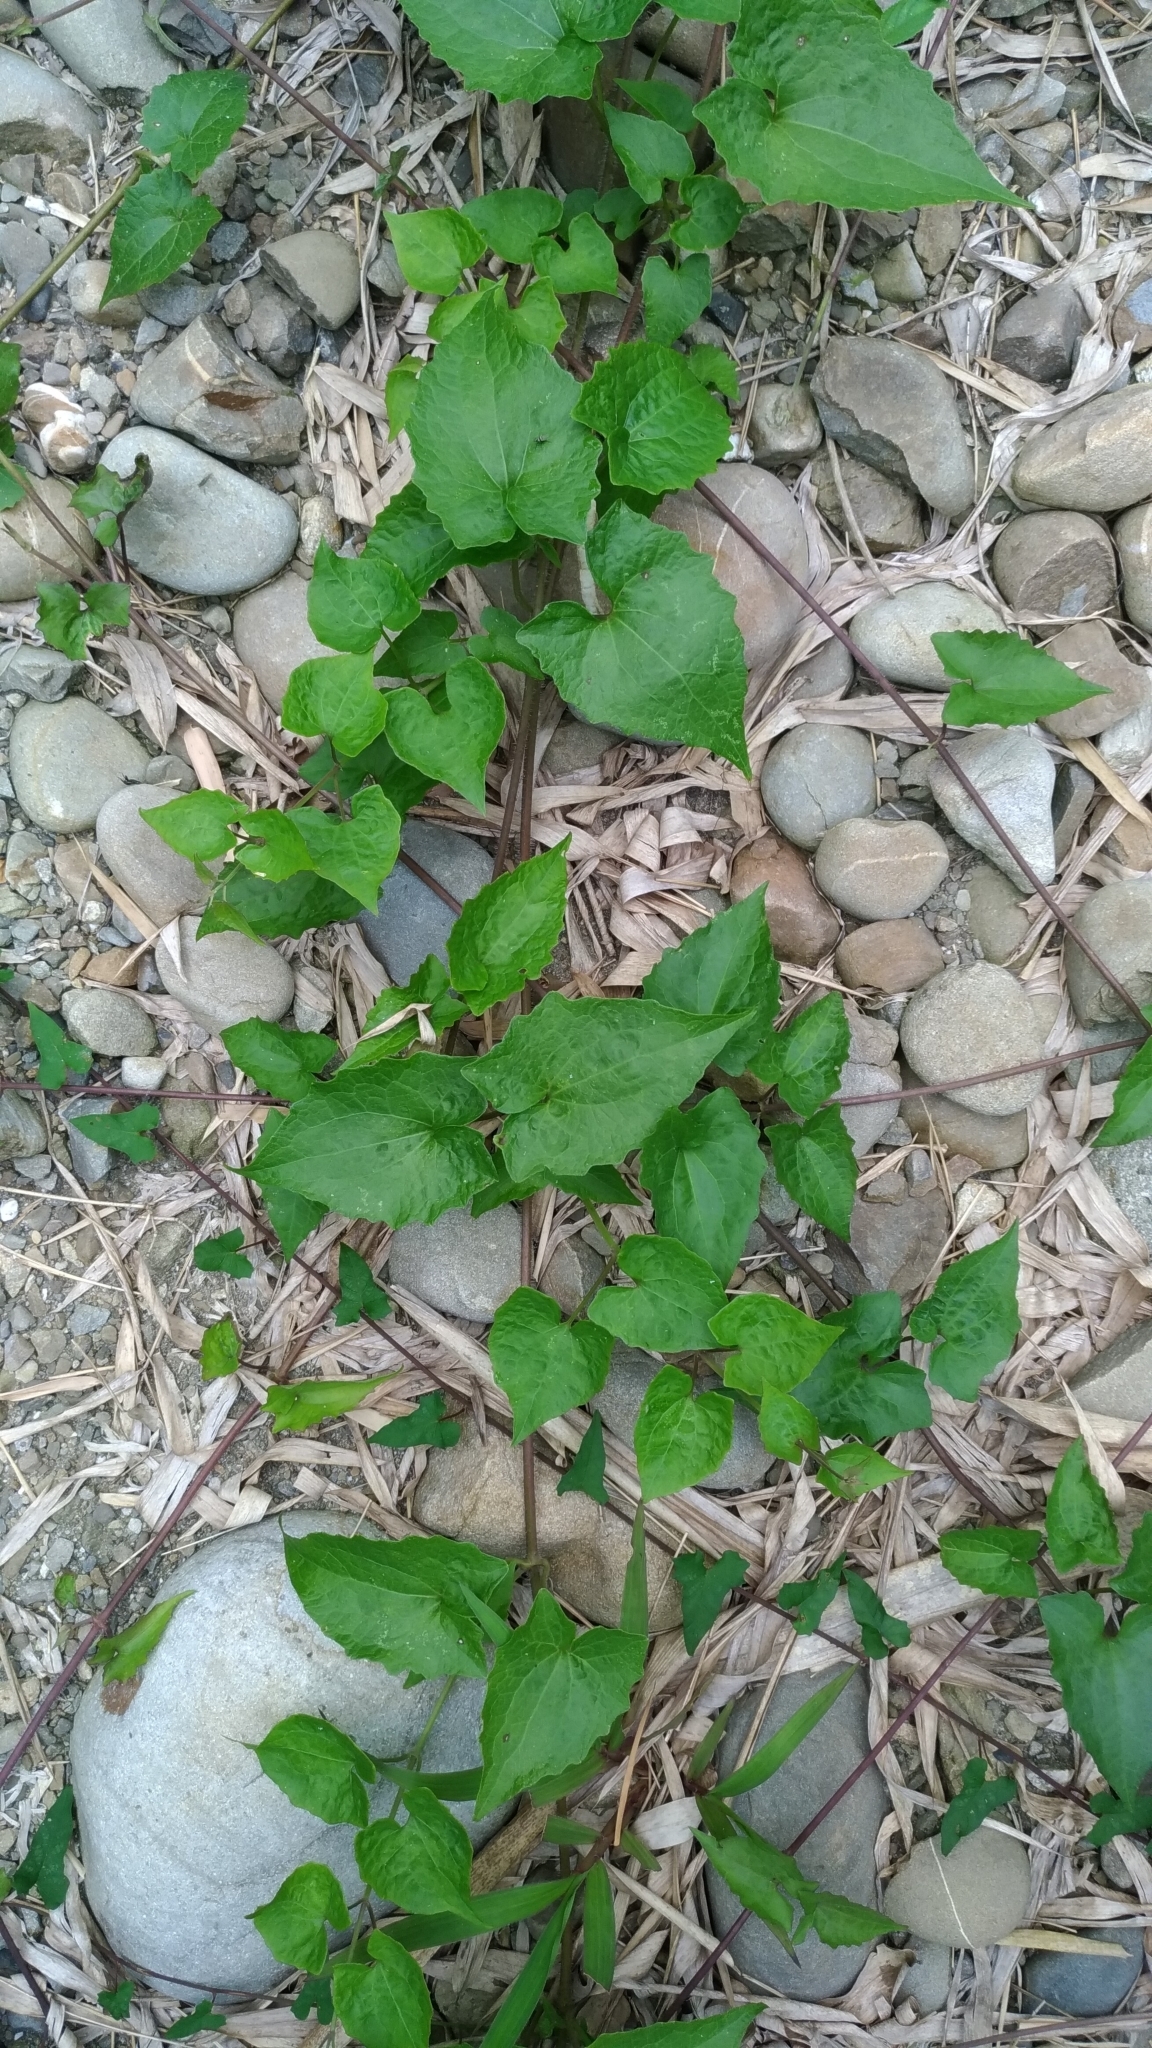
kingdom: Plantae
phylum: Tracheophyta
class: Magnoliopsida
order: Asterales
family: Asteraceae
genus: Mikania
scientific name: Mikania micrantha
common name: Mile-a-minute
